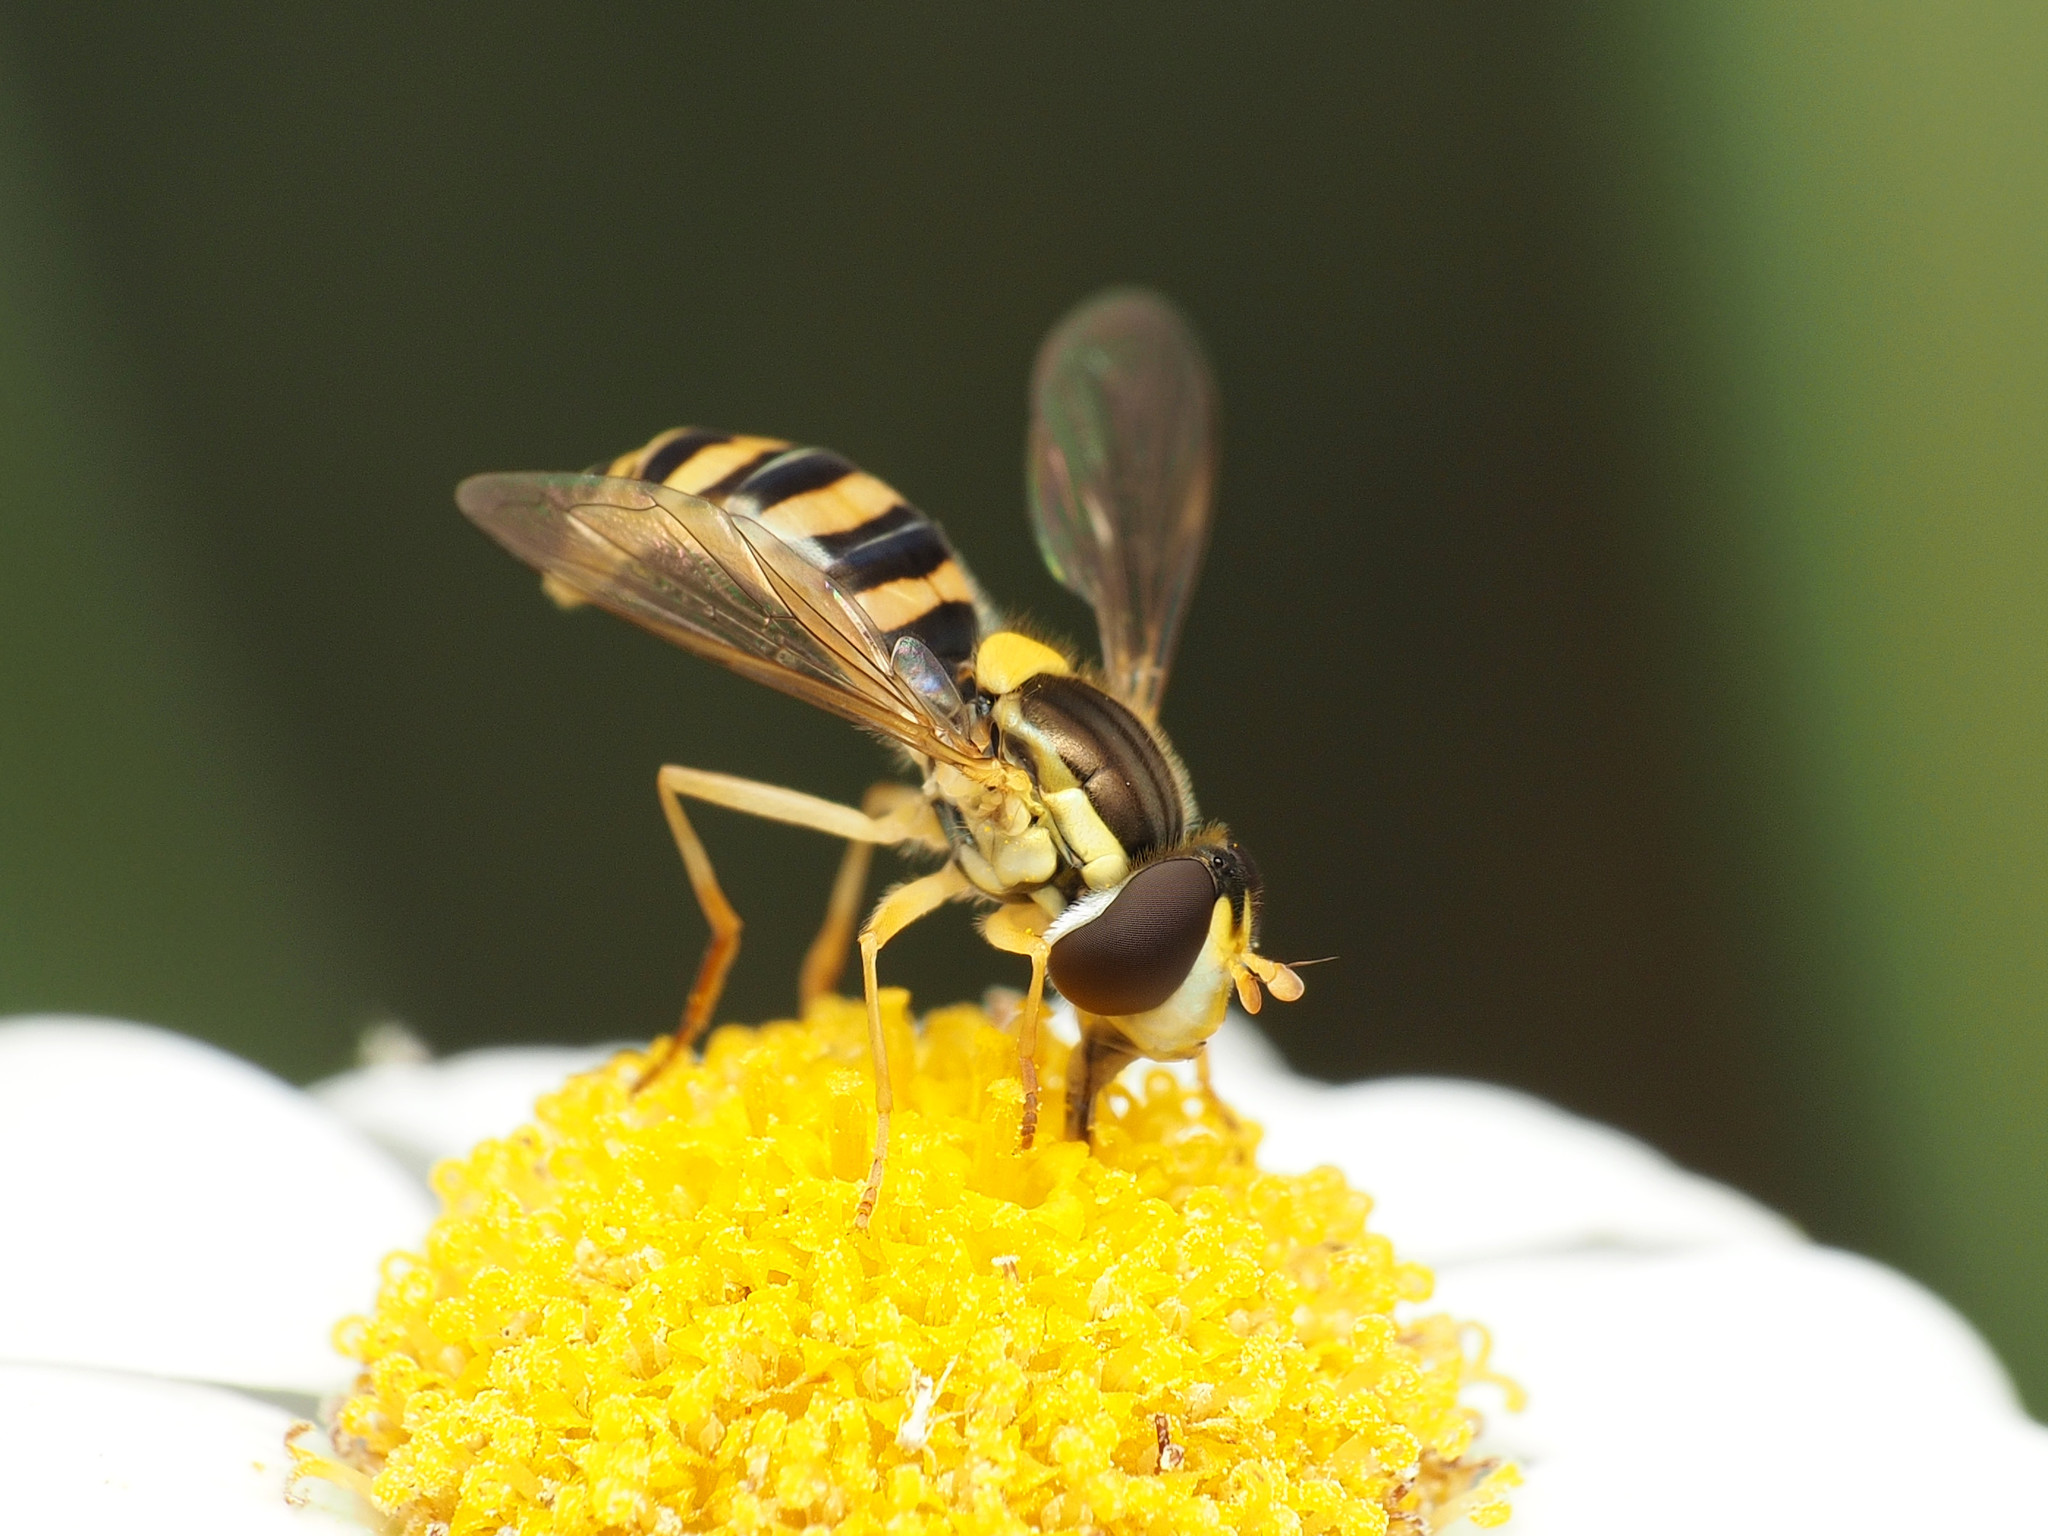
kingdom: Animalia
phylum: Arthropoda
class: Insecta
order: Diptera
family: Syrphidae
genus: Sphaerophoria
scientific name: Sphaerophoria
